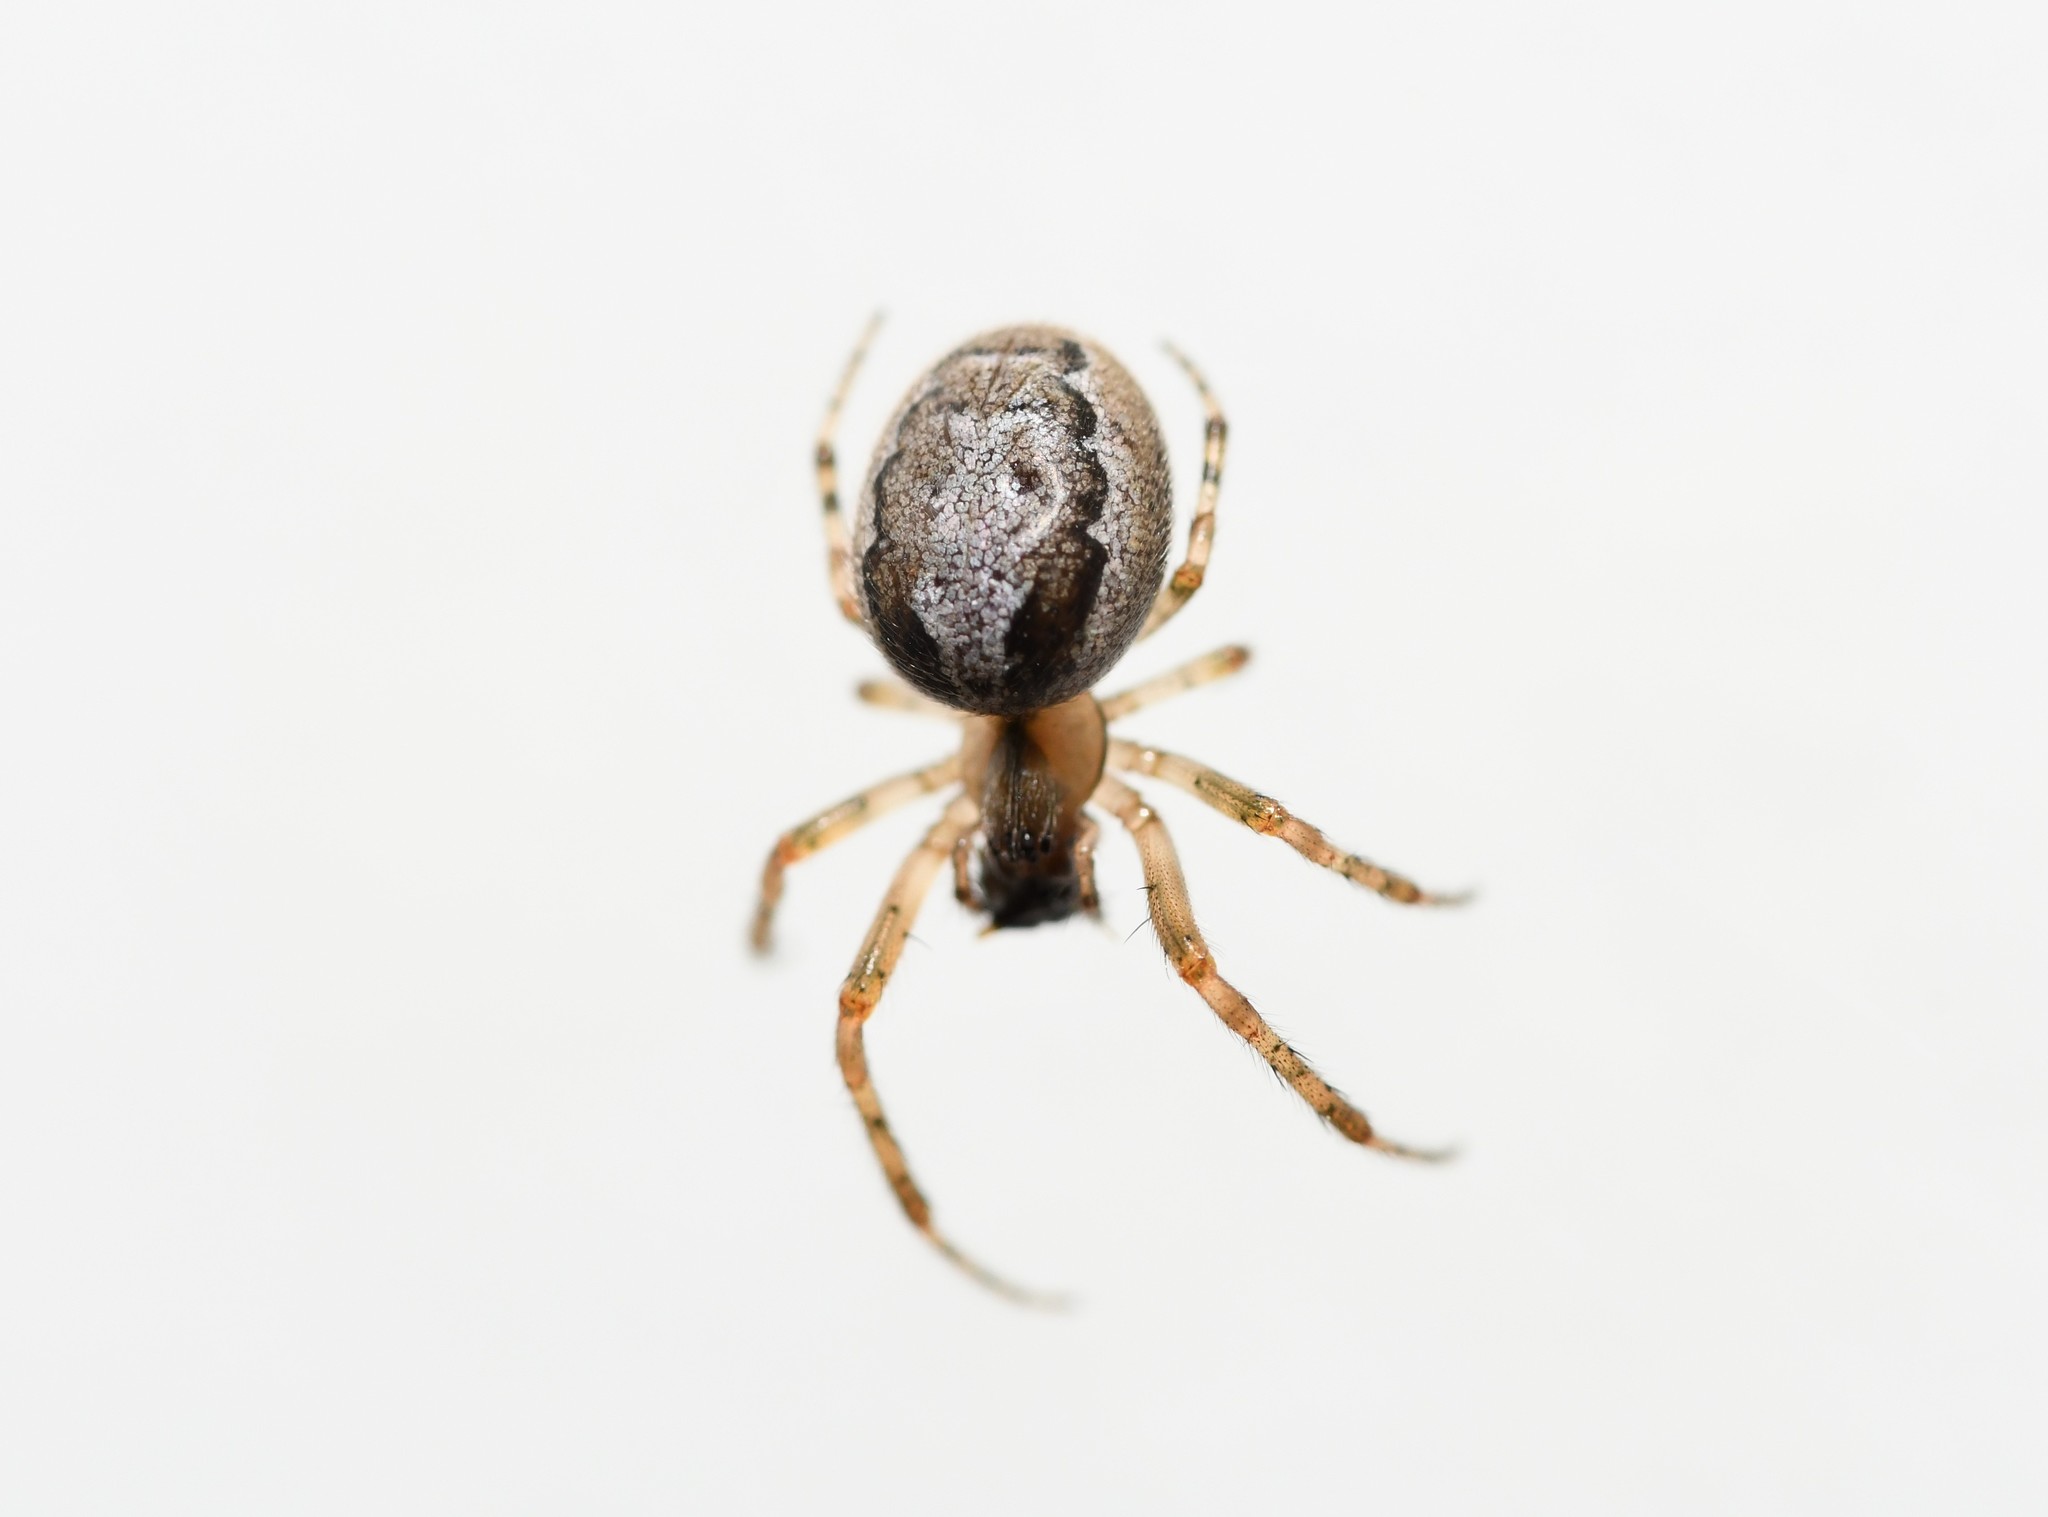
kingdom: Animalia
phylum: Arthropoda
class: Arachnida
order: Araneae
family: Araneidae
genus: Zygiella
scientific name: Zygiella x-notata
